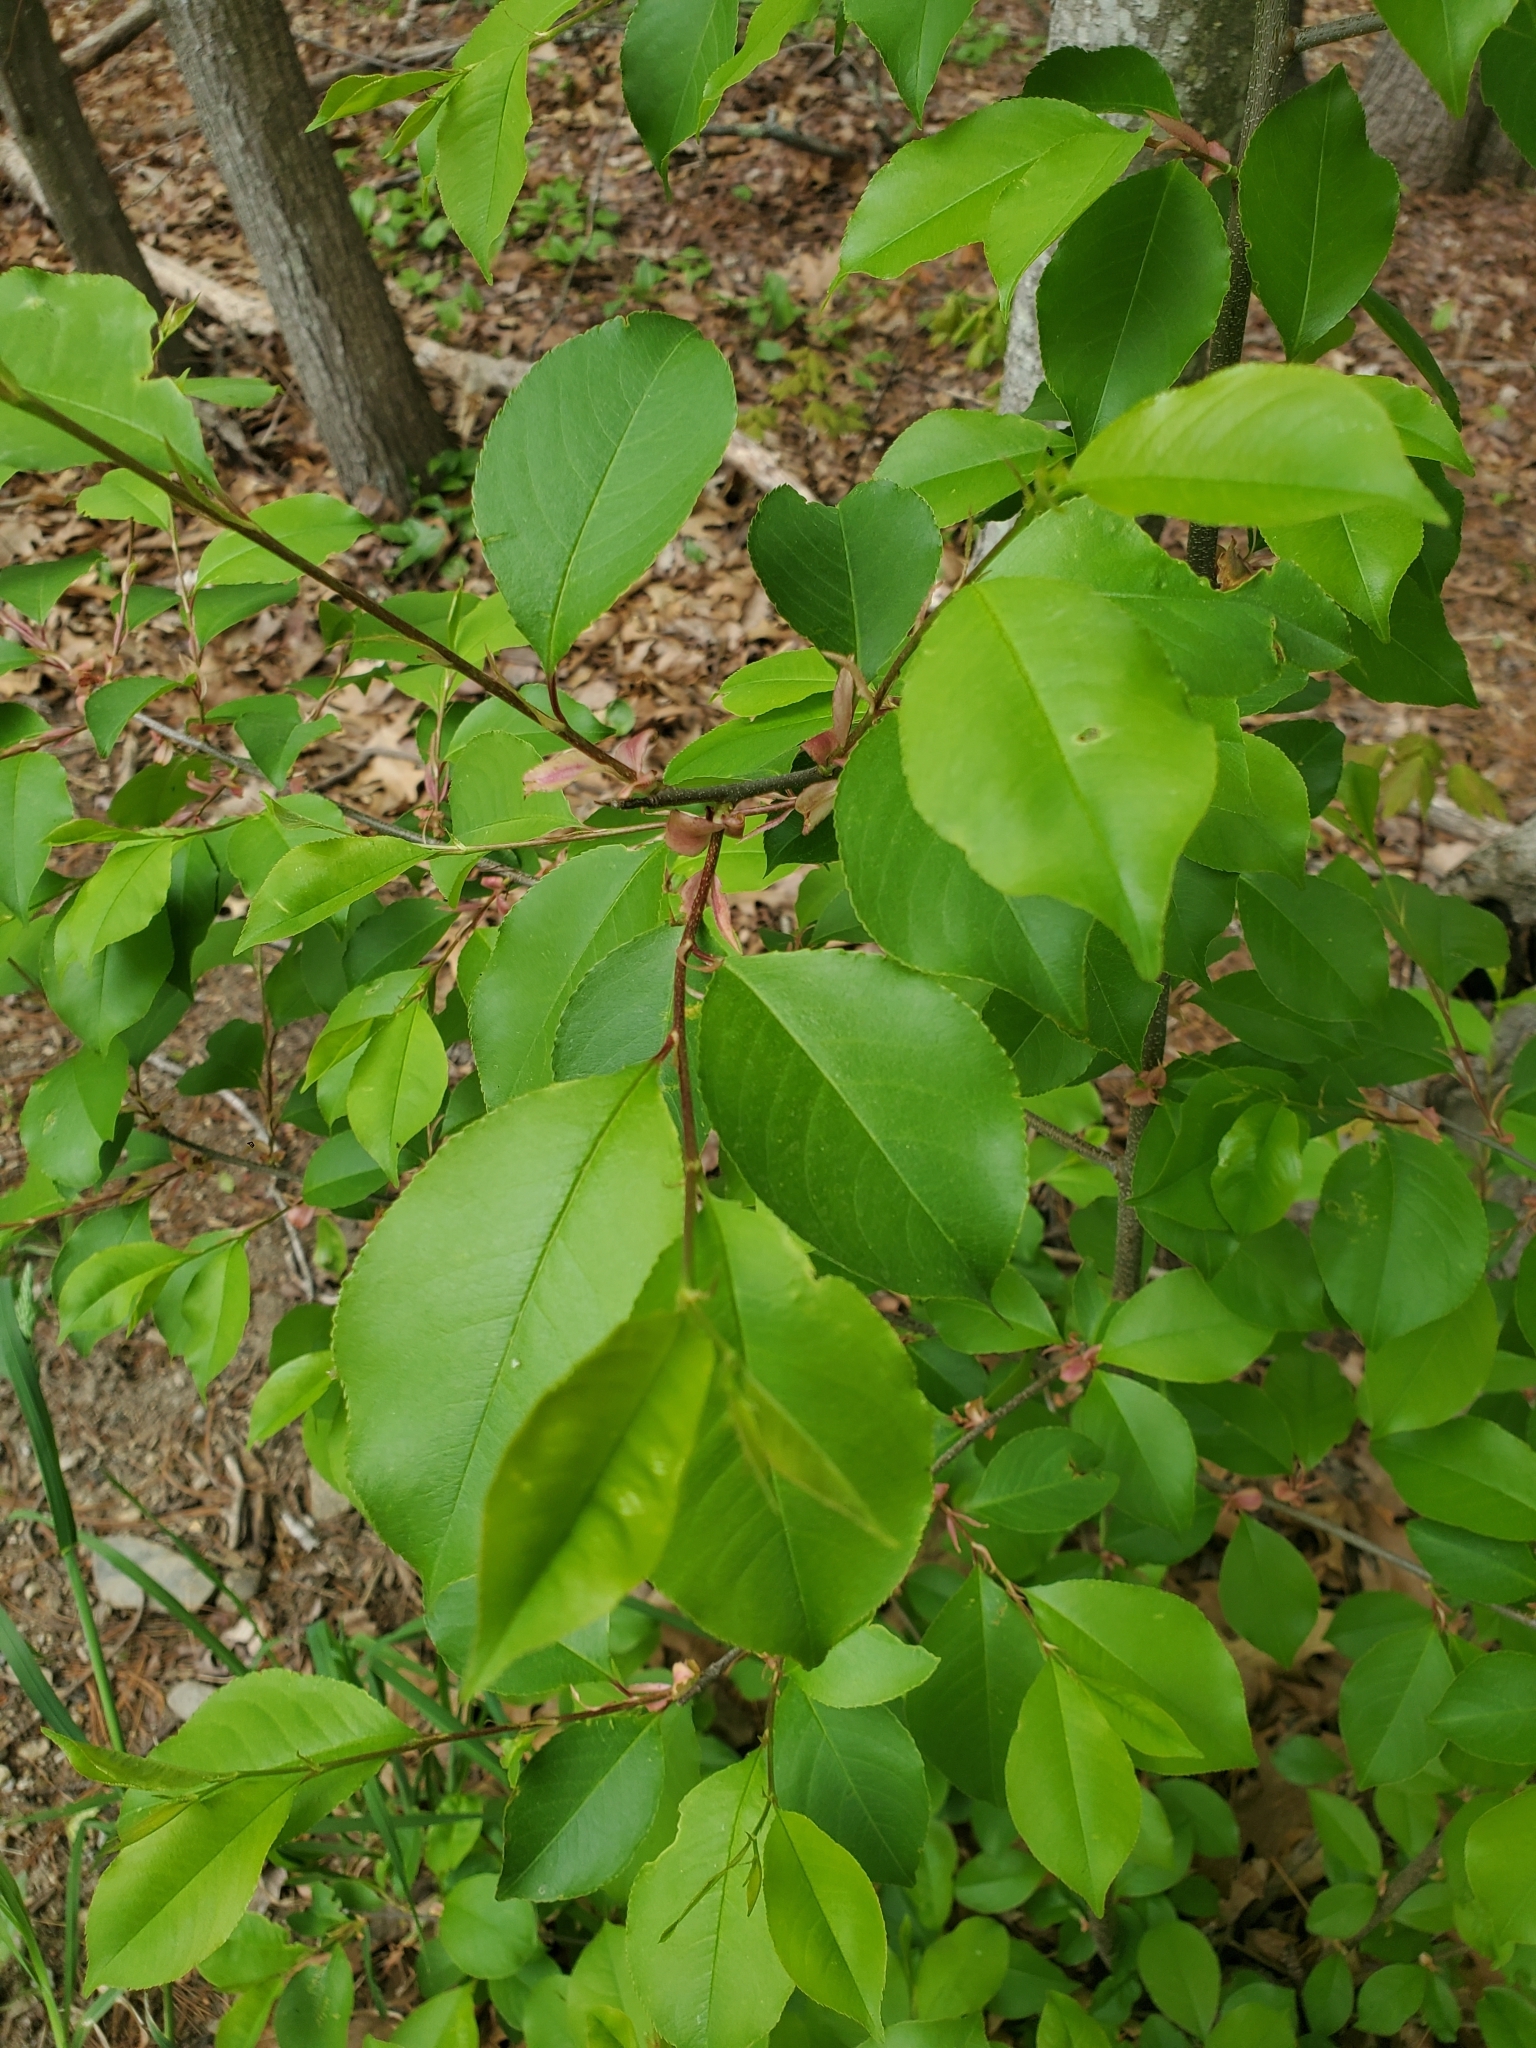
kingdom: Plantae
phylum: Tracheophyta
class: Magnoliopsida
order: Rosales
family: Rosaceae
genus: Prunus
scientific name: Prunus serotina
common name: Black cherry
